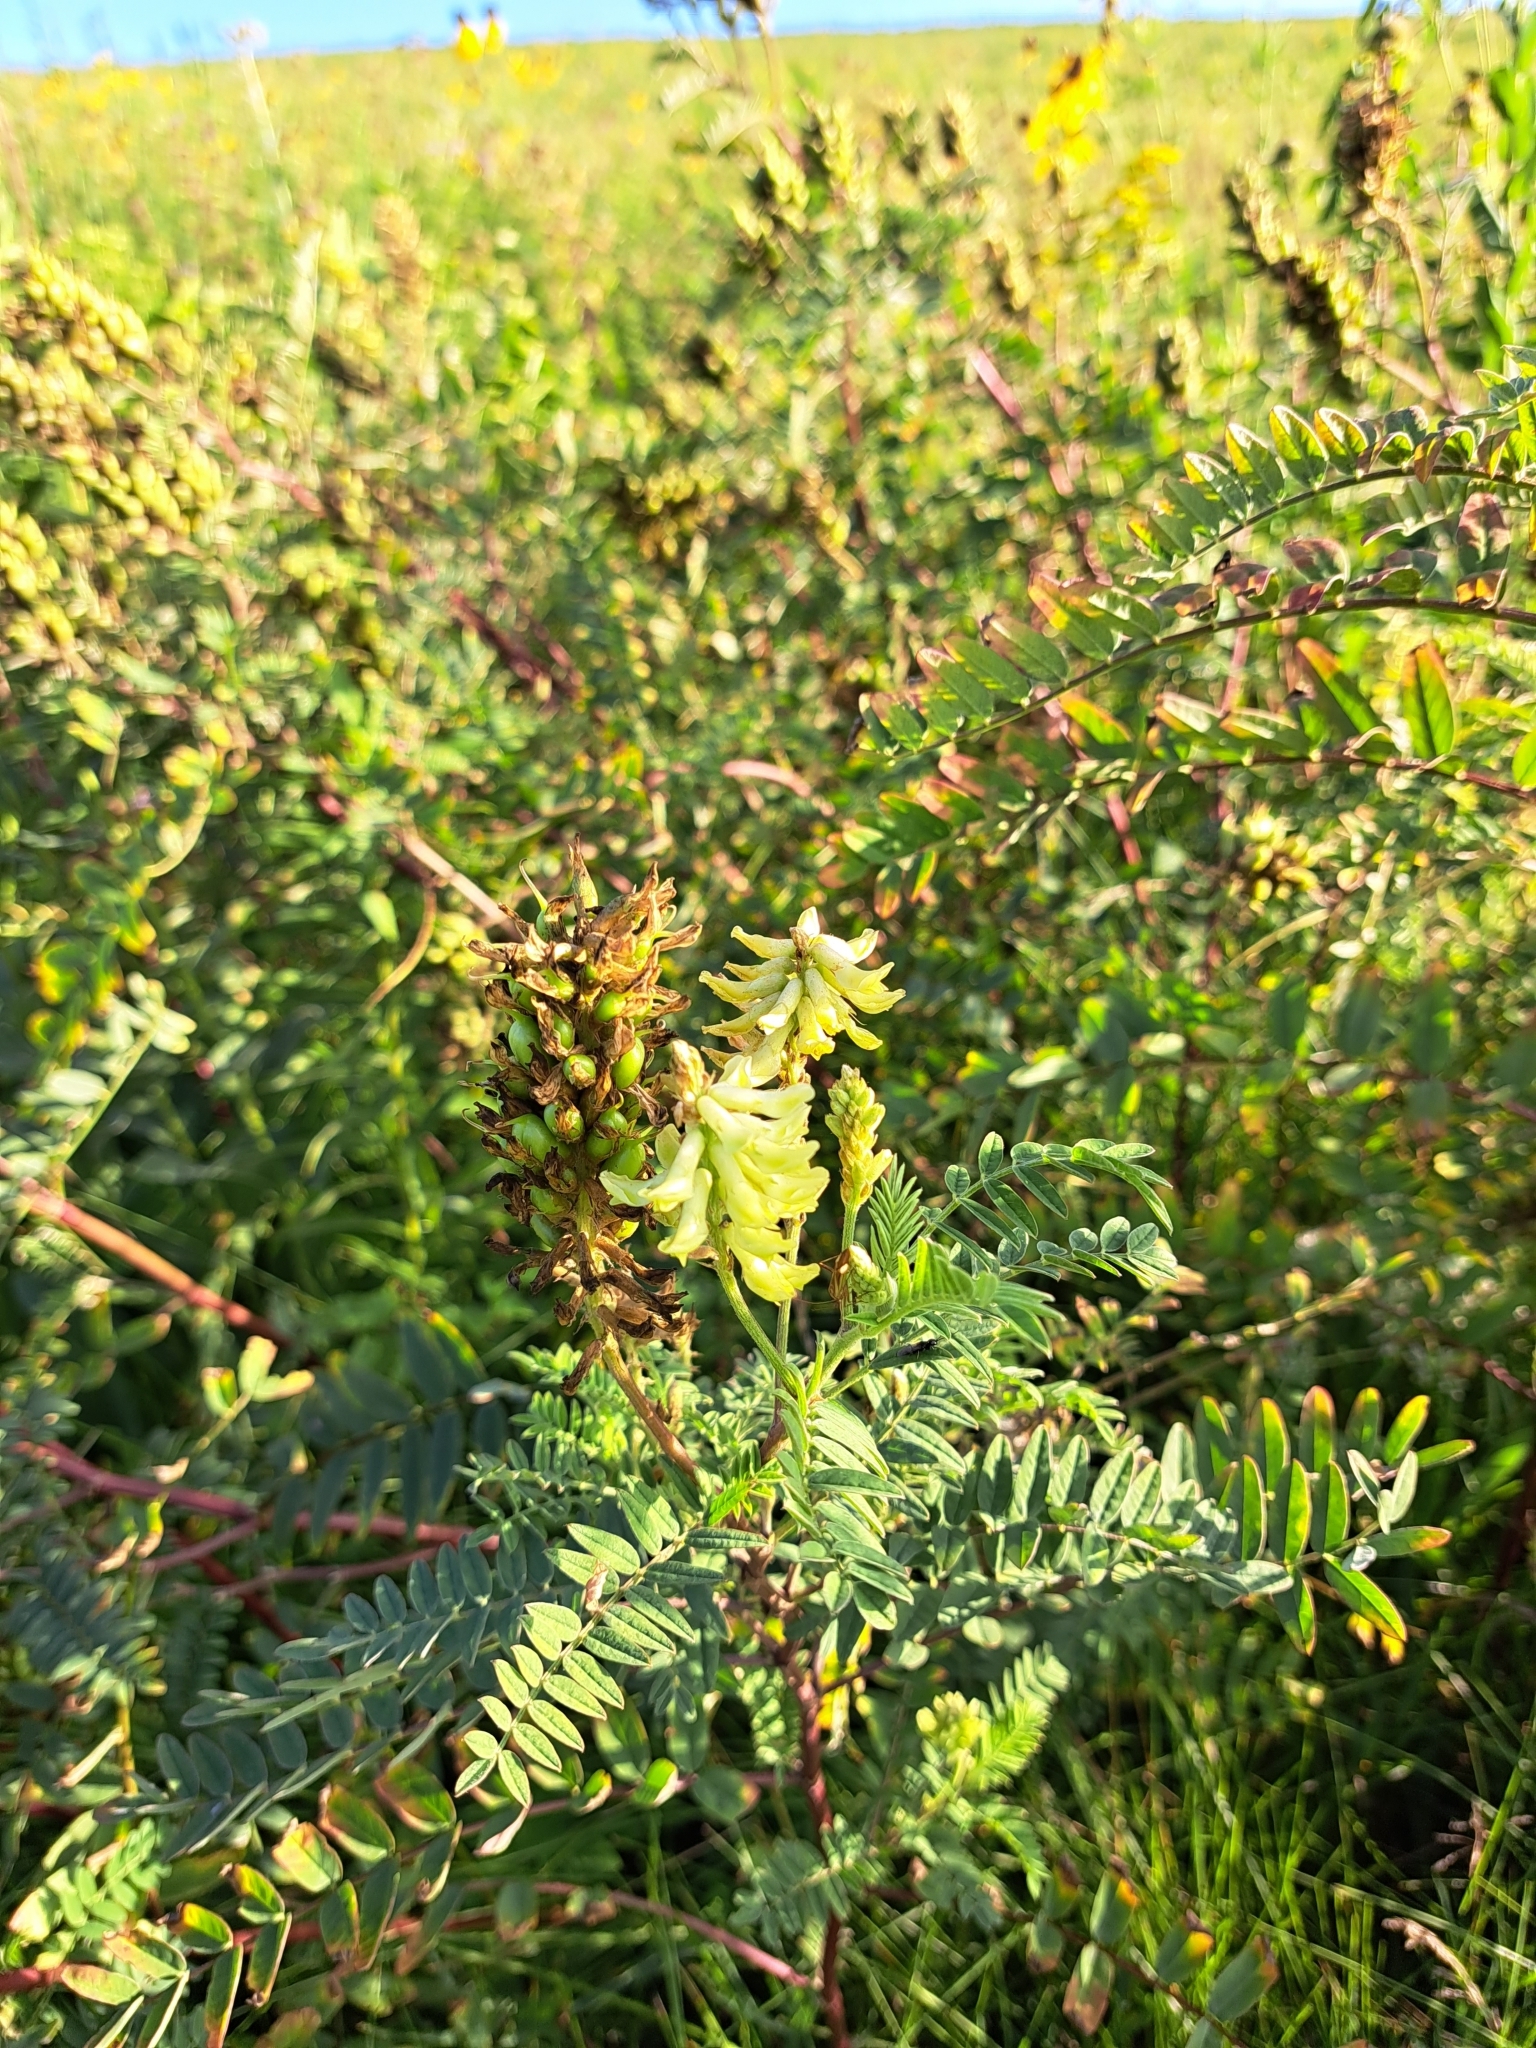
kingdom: Plantae
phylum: Tracheophyta
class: Magnoliopsida
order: Fabales
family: Fabaceae
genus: Astragalus
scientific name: Astragalus canadensis
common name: Canada milk-vetch
